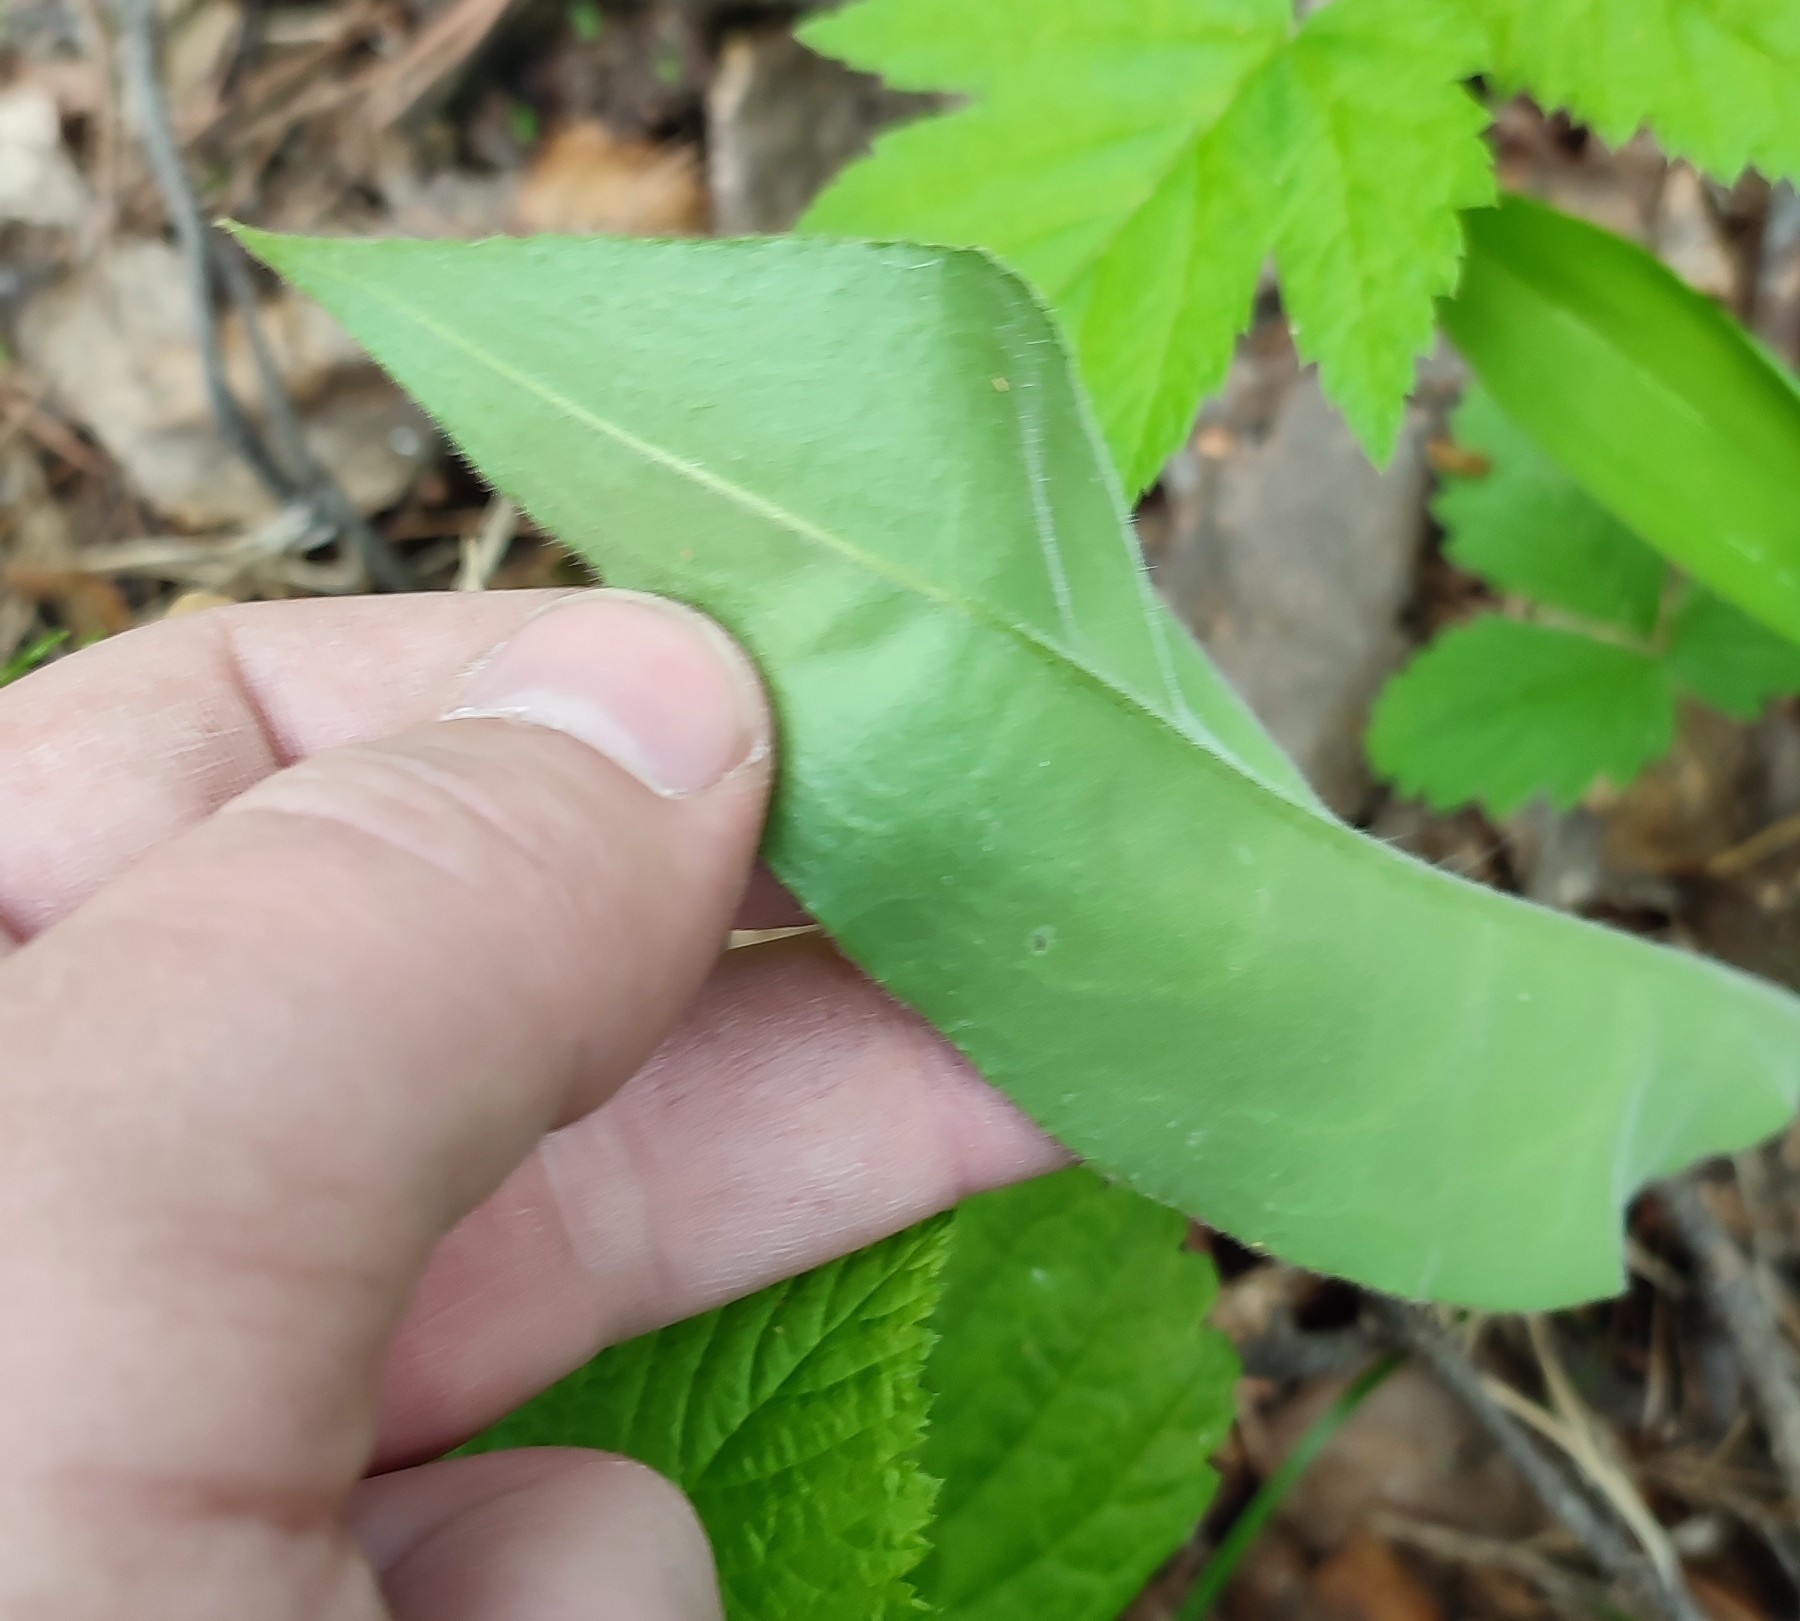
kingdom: Plantae
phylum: Tracheophyta
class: Magnoliopsida
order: Boraginales
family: Boraginaceae
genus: Pulmonaria
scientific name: Pulmonaria mollis
